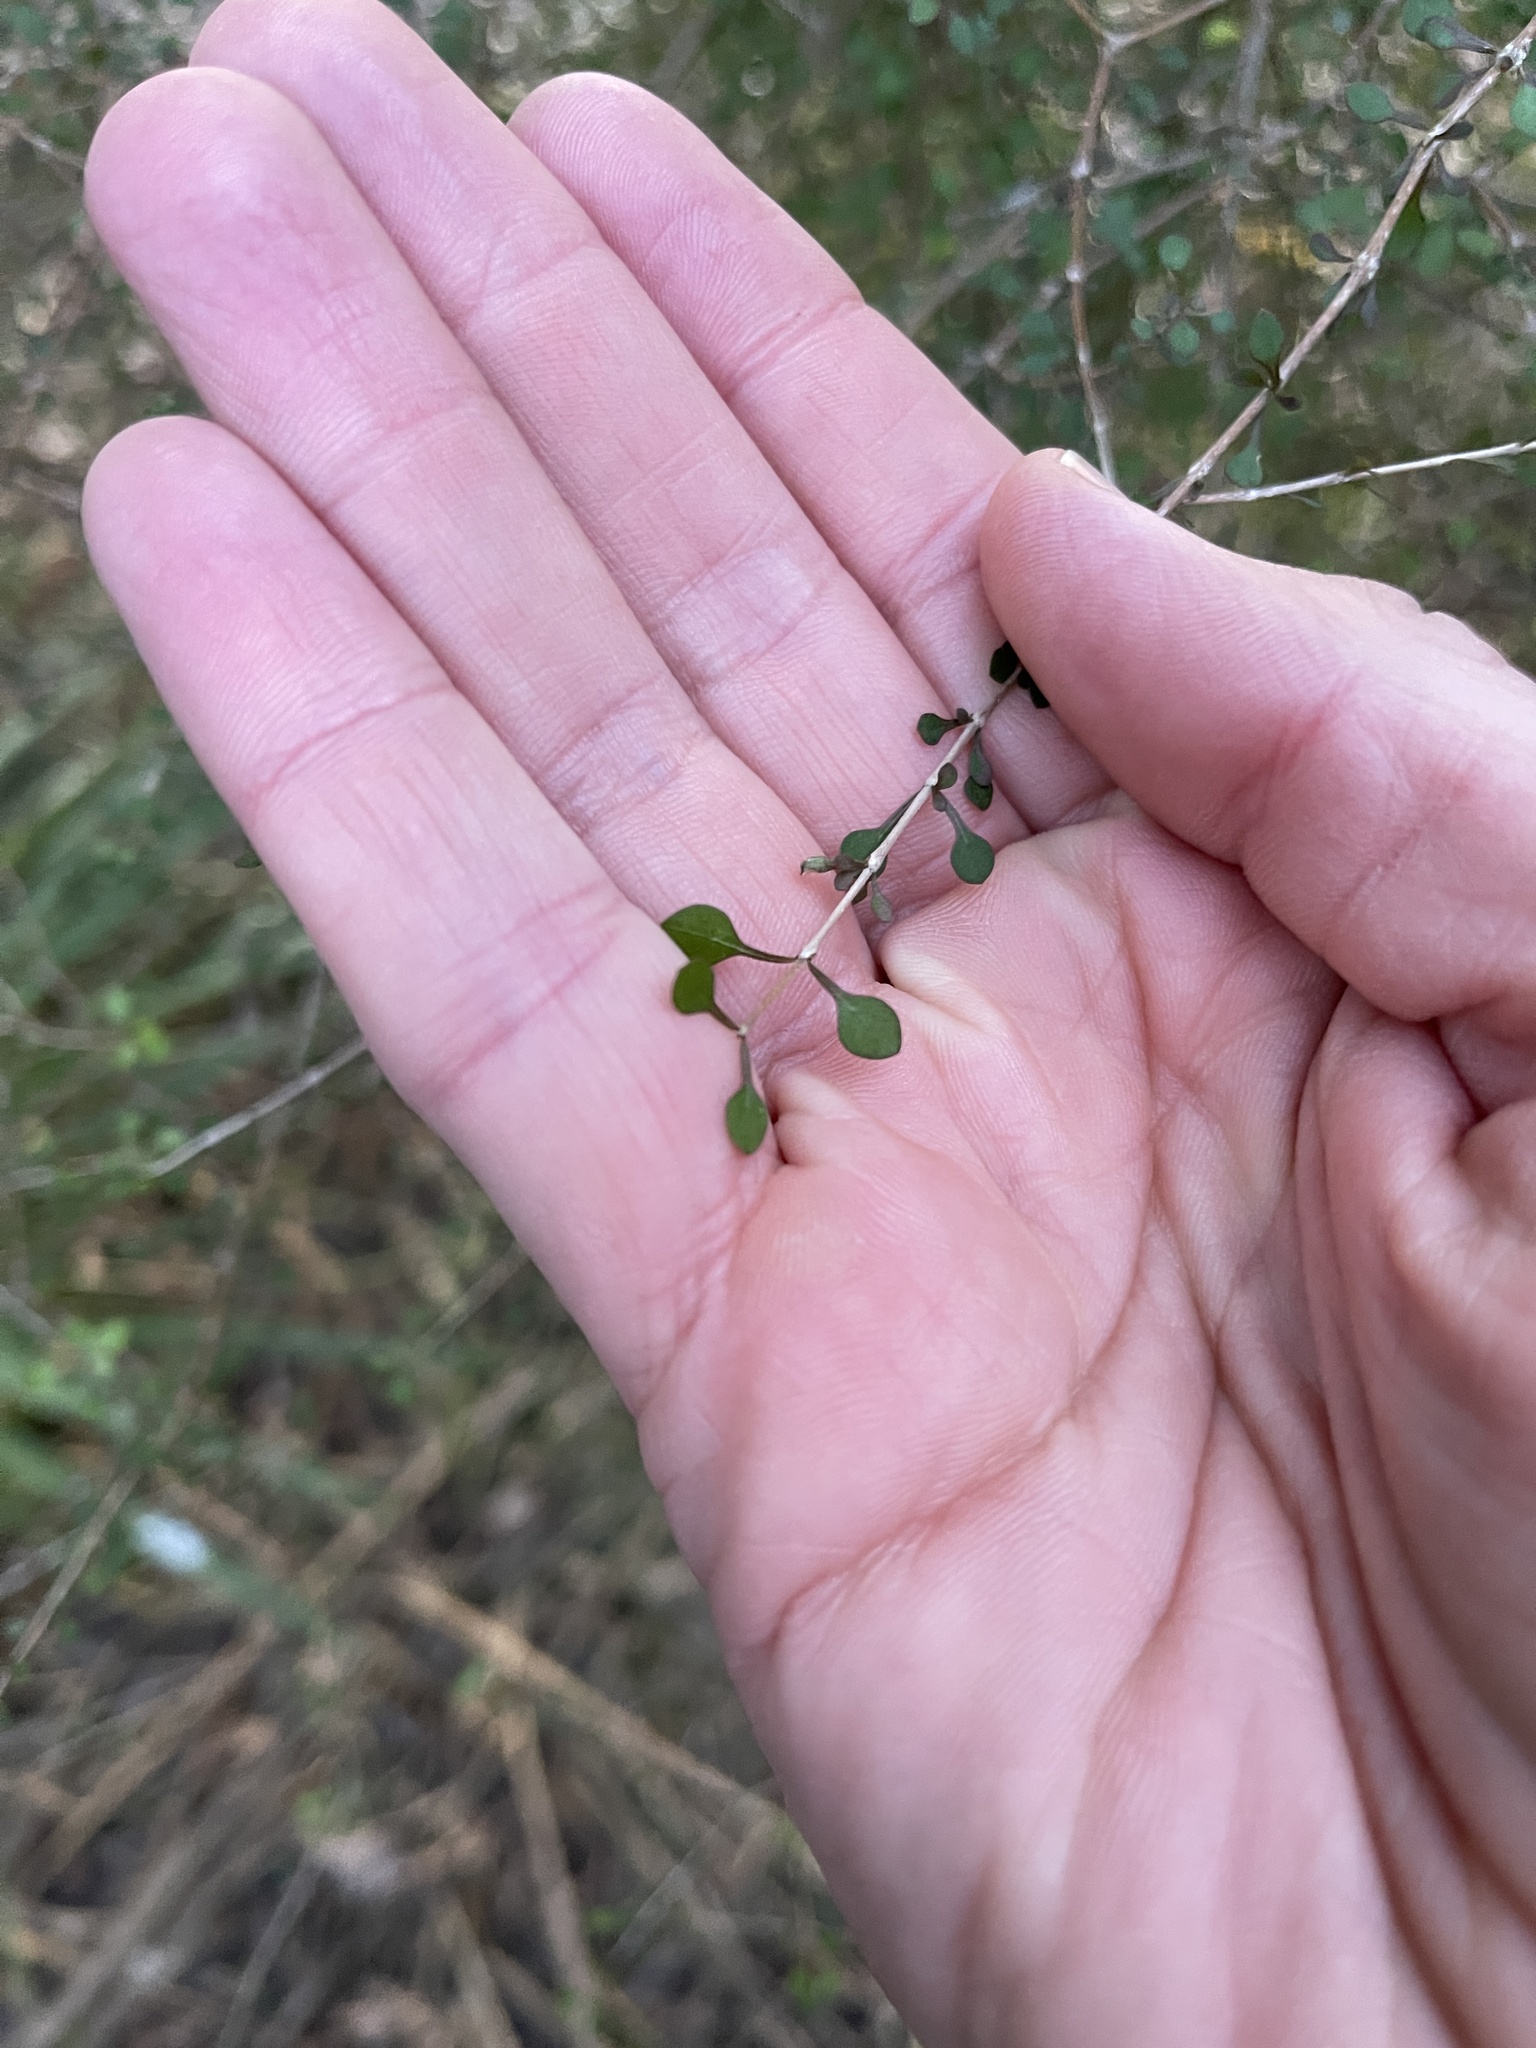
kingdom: Plantae
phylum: Tracheophyta
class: Magnoliopsida
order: Gentianales
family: Rubiaceae
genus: Coprosma
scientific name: Coprosma virescens
